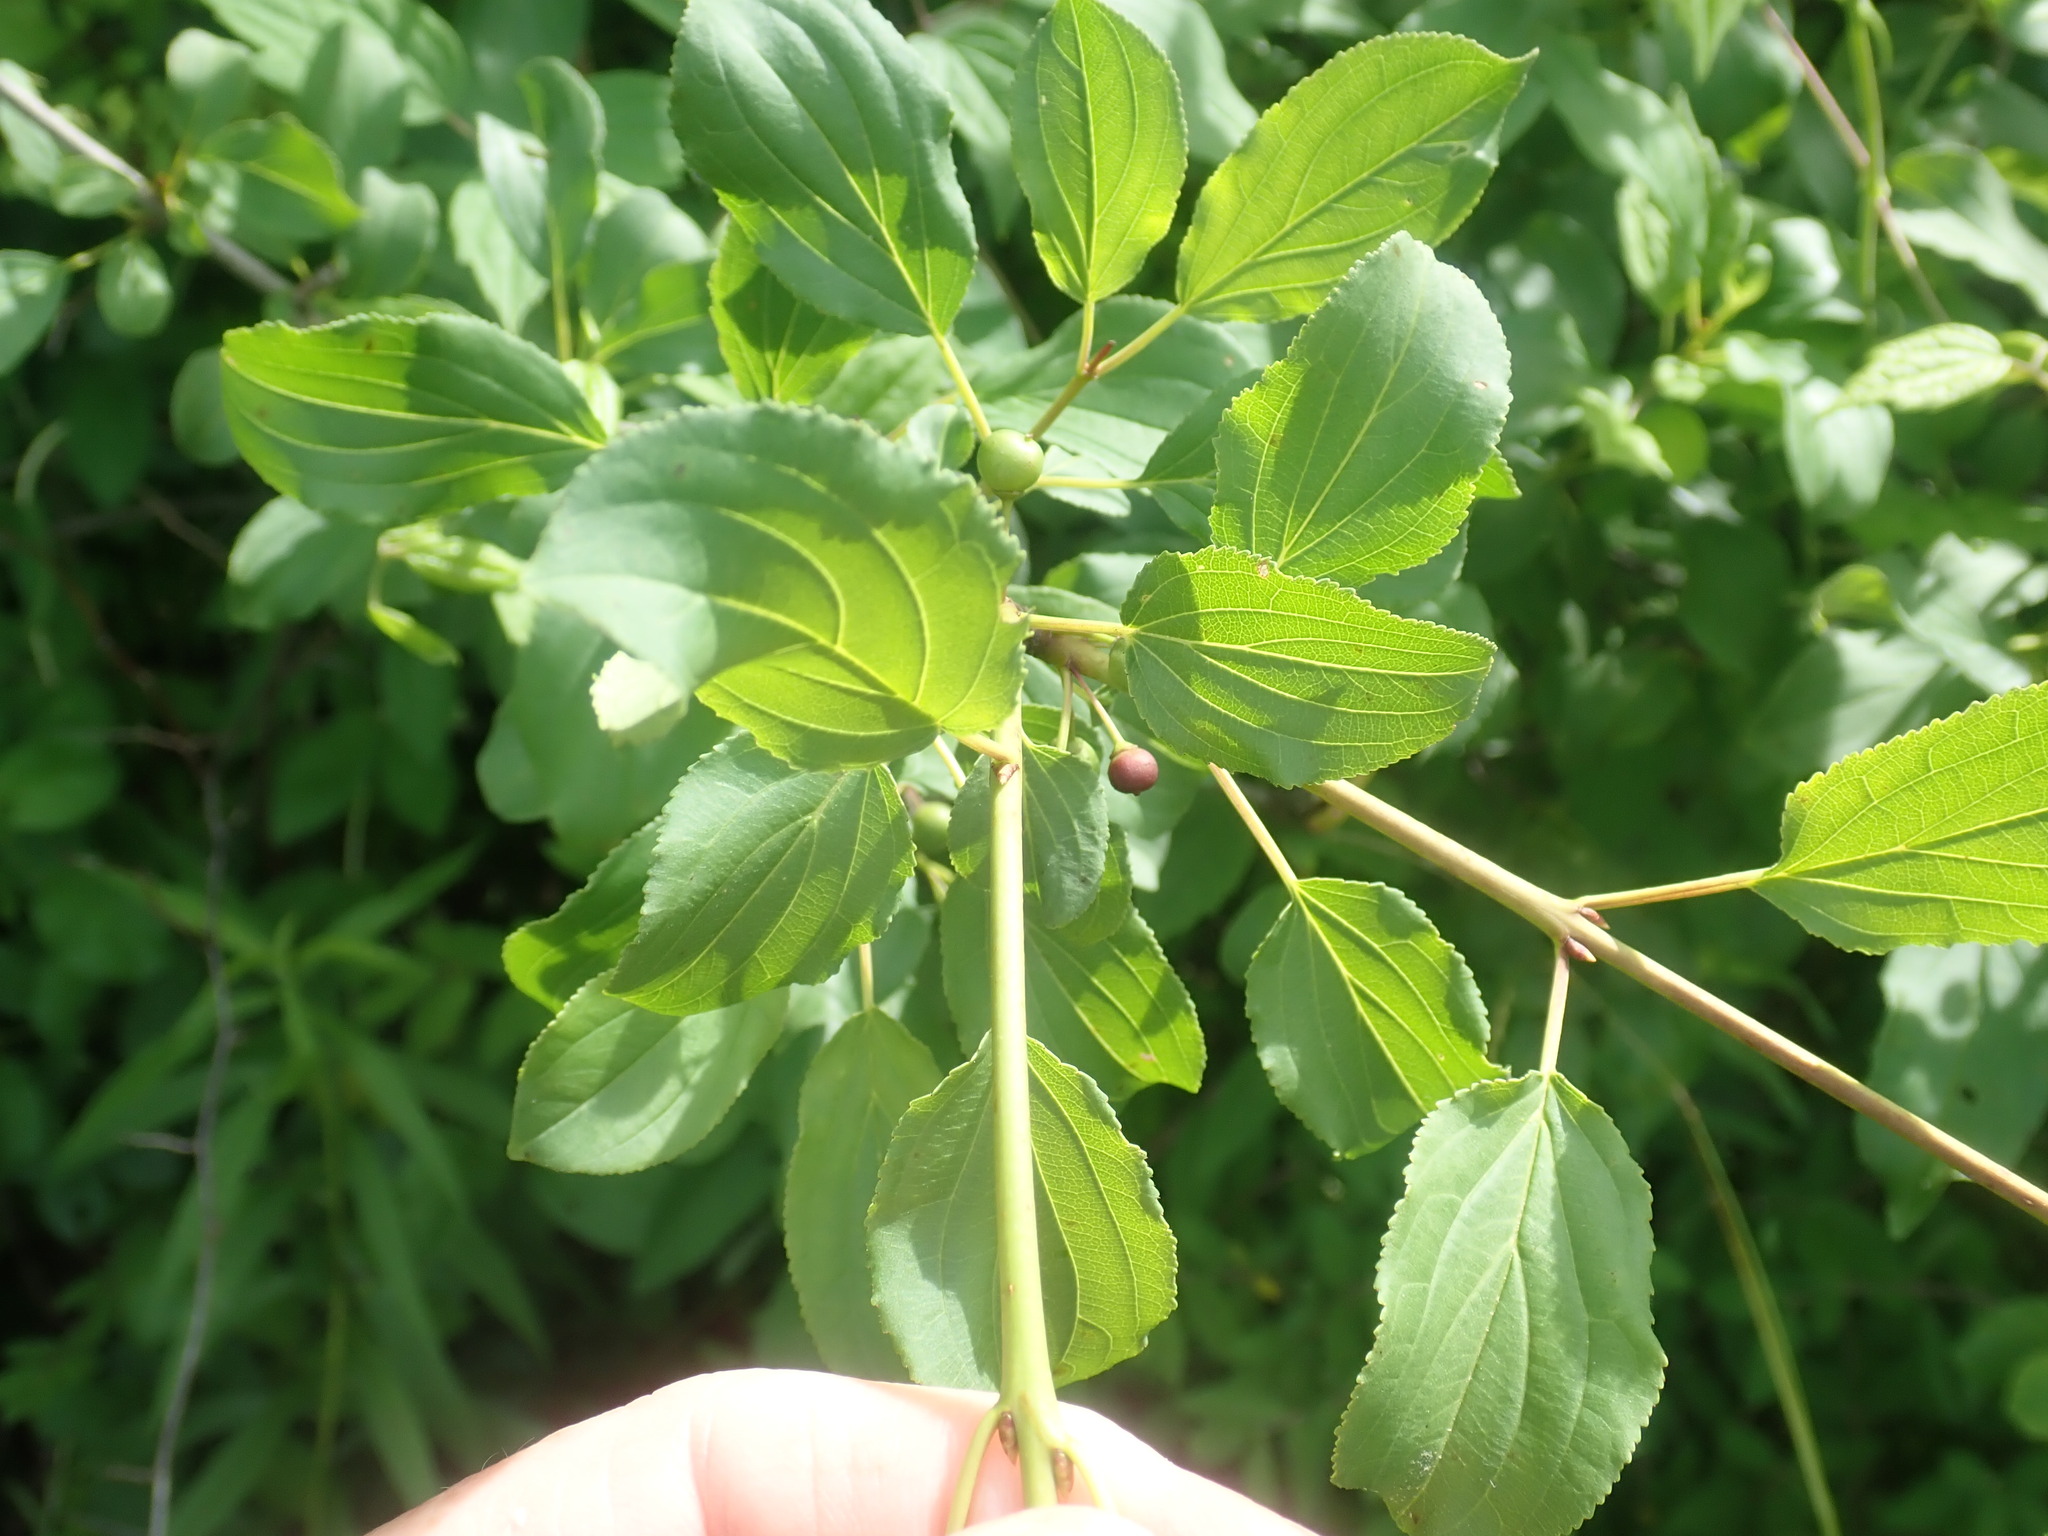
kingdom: Plantae
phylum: Tracheophyta
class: Magnoliopsida
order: Rosales
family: Rhamnaceae
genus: Rhamnus
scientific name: Rhamnus cathartica
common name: Common buckthorn
